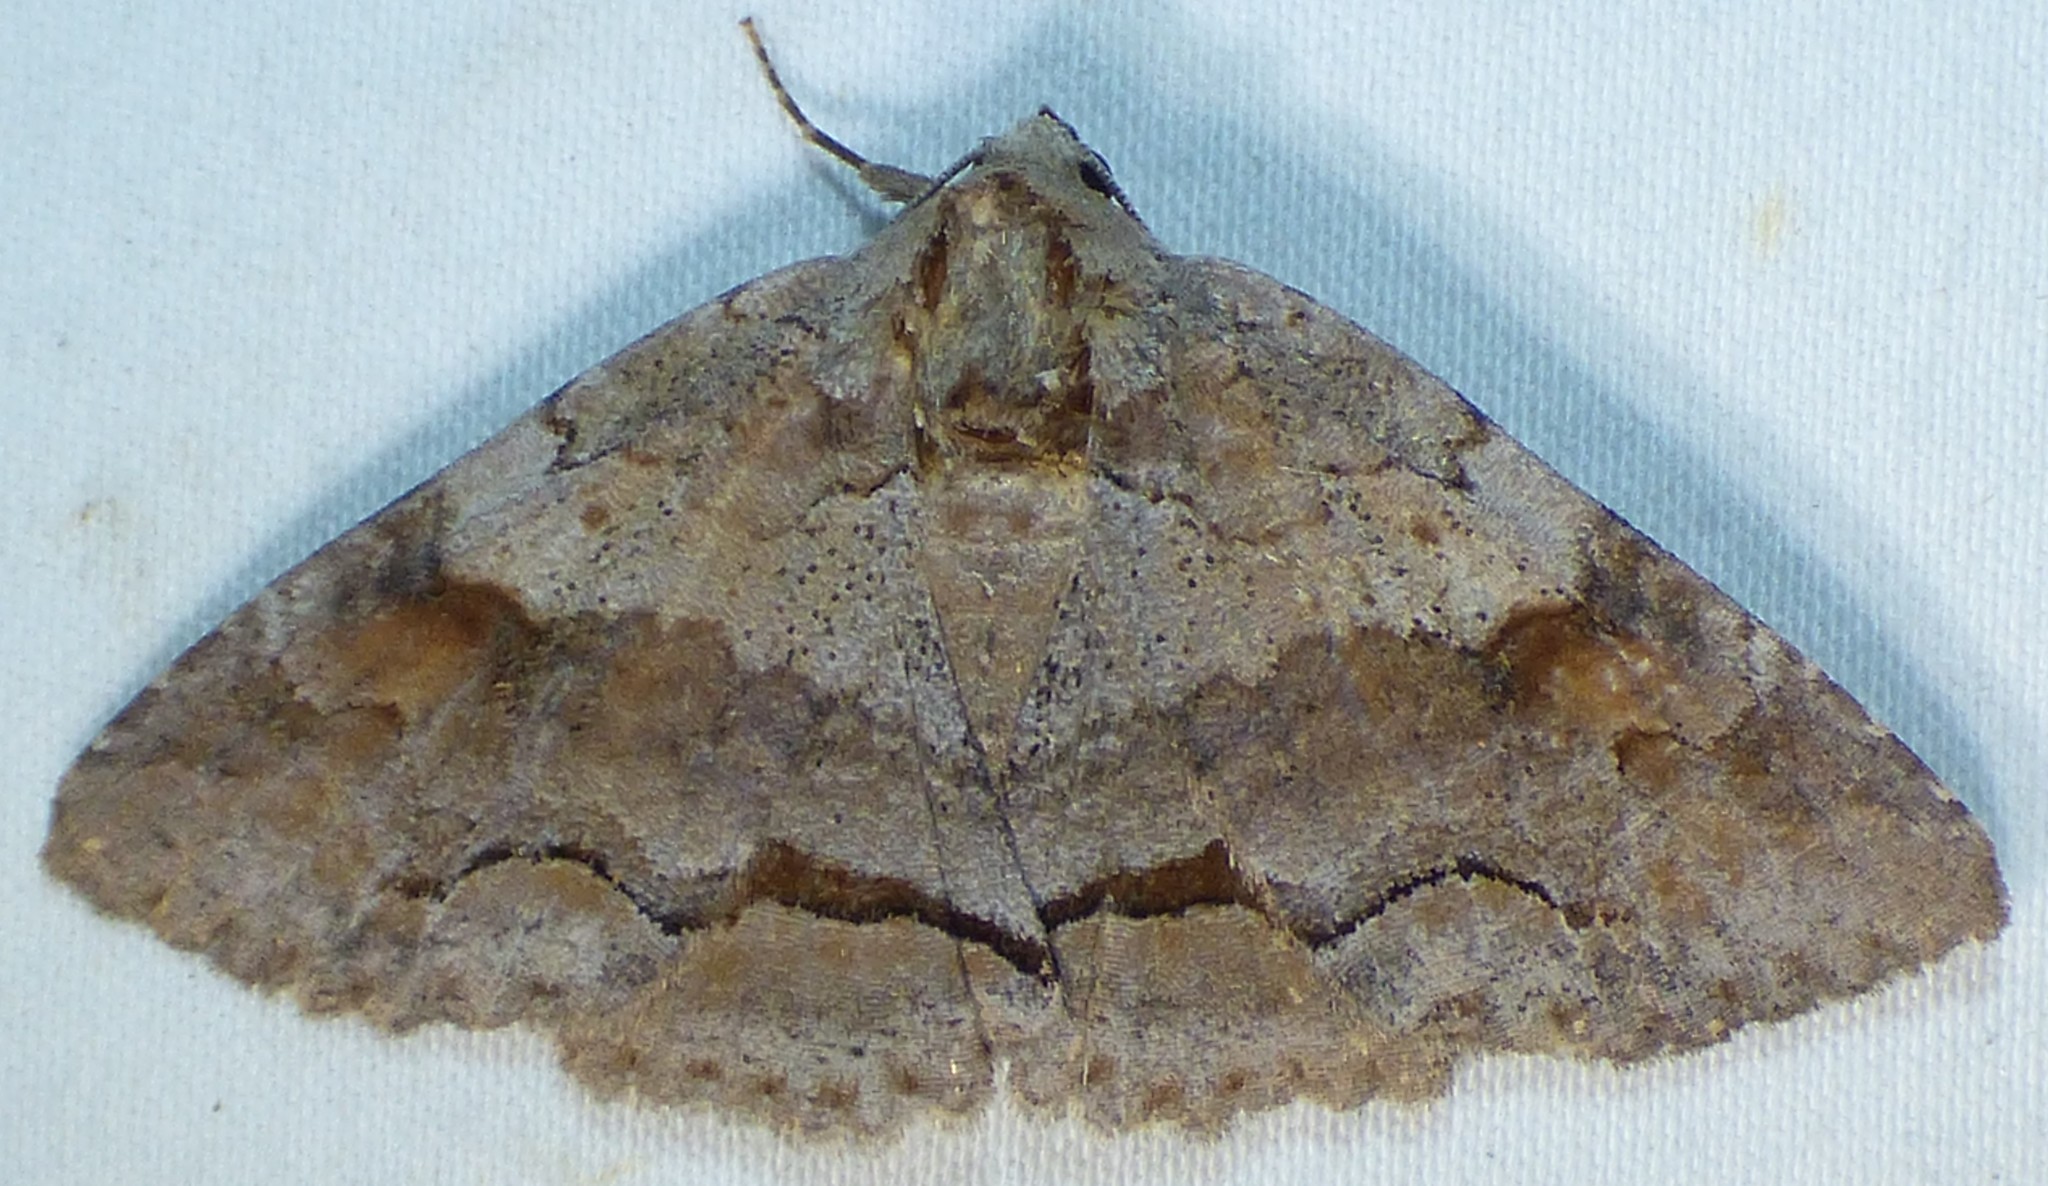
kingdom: Animalia
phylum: Arthropoda
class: Insecta
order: Lepidoptera
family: Erebidae
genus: Zale
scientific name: Zale obliqua
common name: Oblique zale moth
